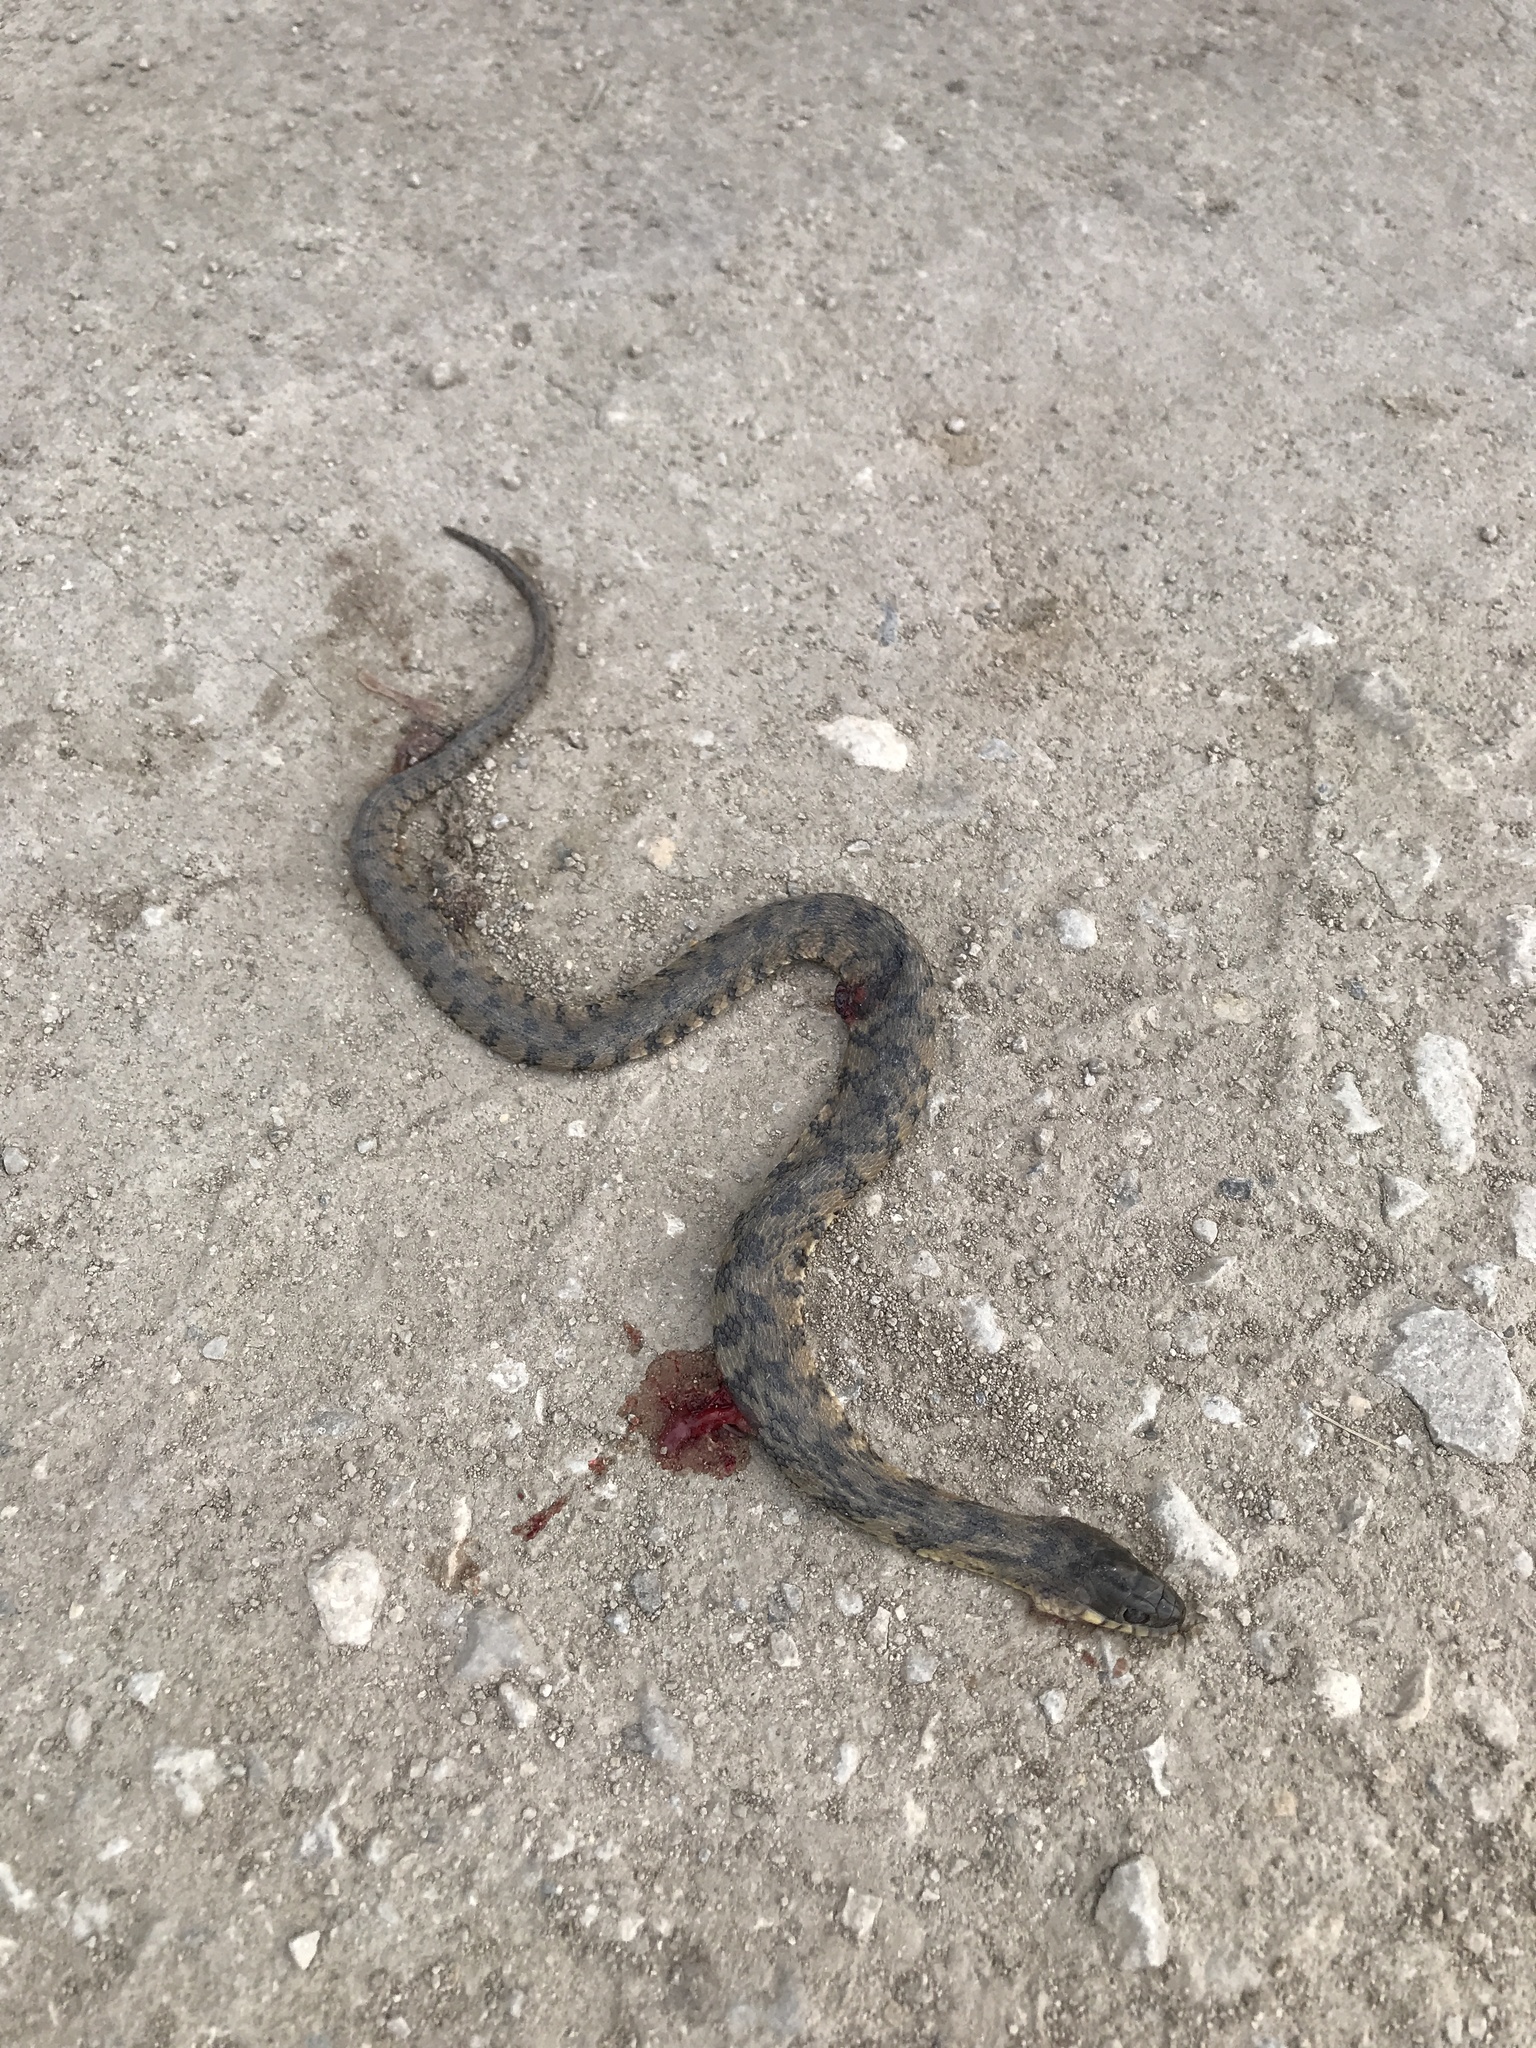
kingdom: Animalia
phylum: Chordata
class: Squamata
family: Colubridae
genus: Nerodia
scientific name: Nerodia rhombifer
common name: Diamondback water snake
